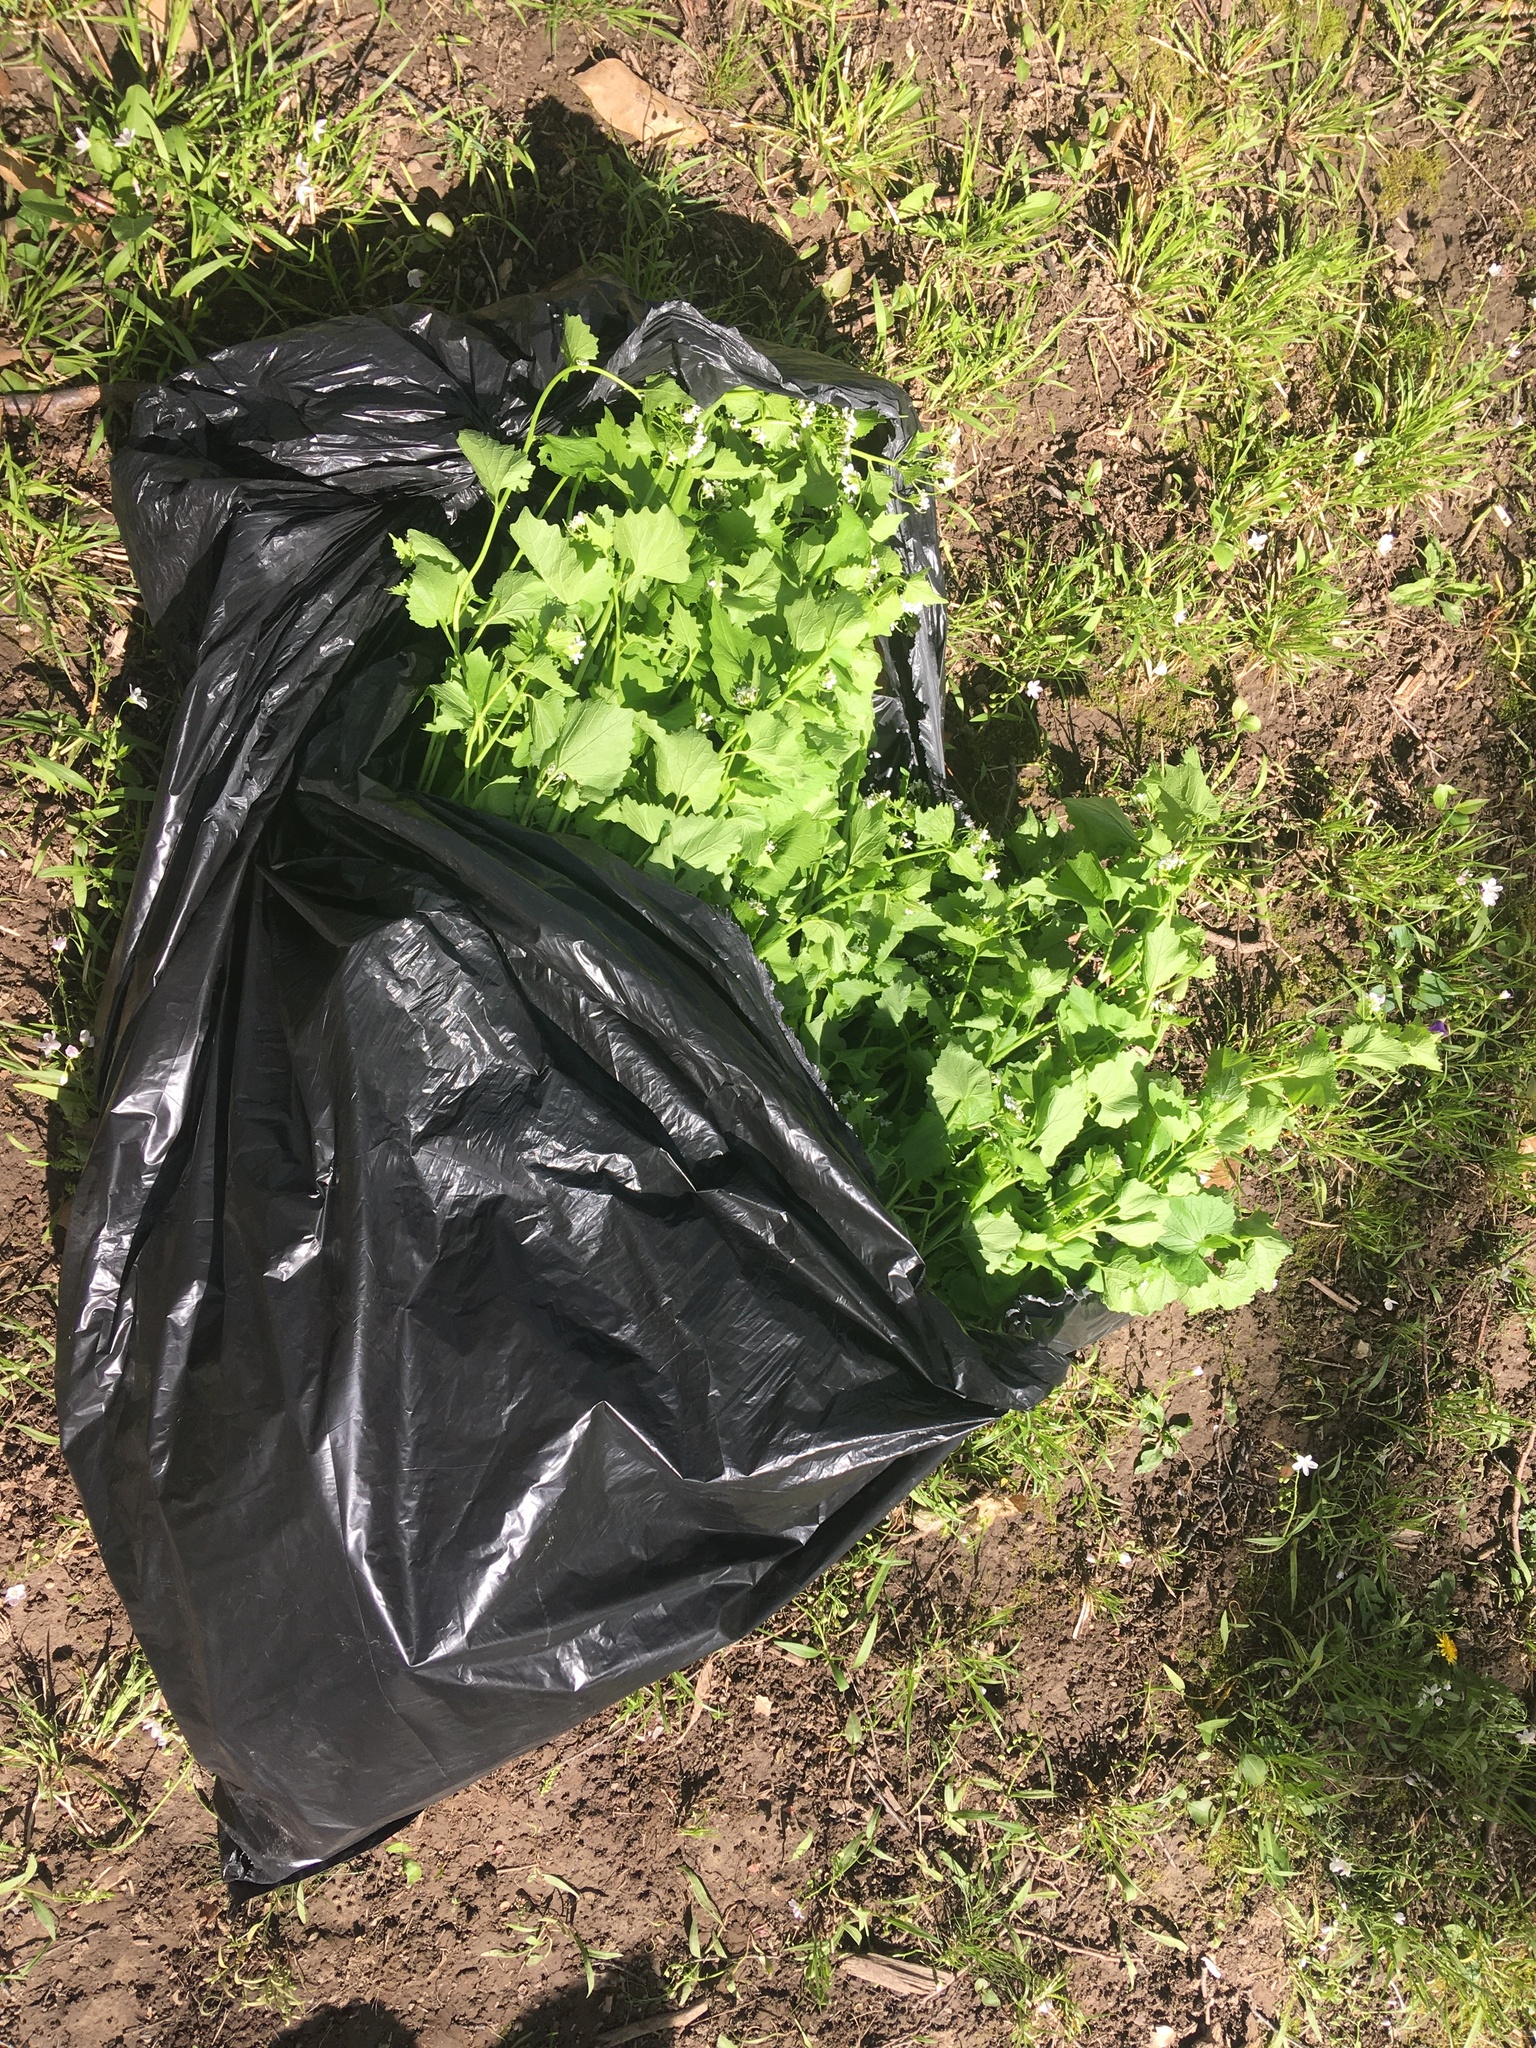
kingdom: Plantae
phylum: Tracheophyta
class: Magnoliopsida
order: Brassicales
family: Brassicaceae
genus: Alliaria
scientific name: Alliaria petiolata
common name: Garlic mustard
